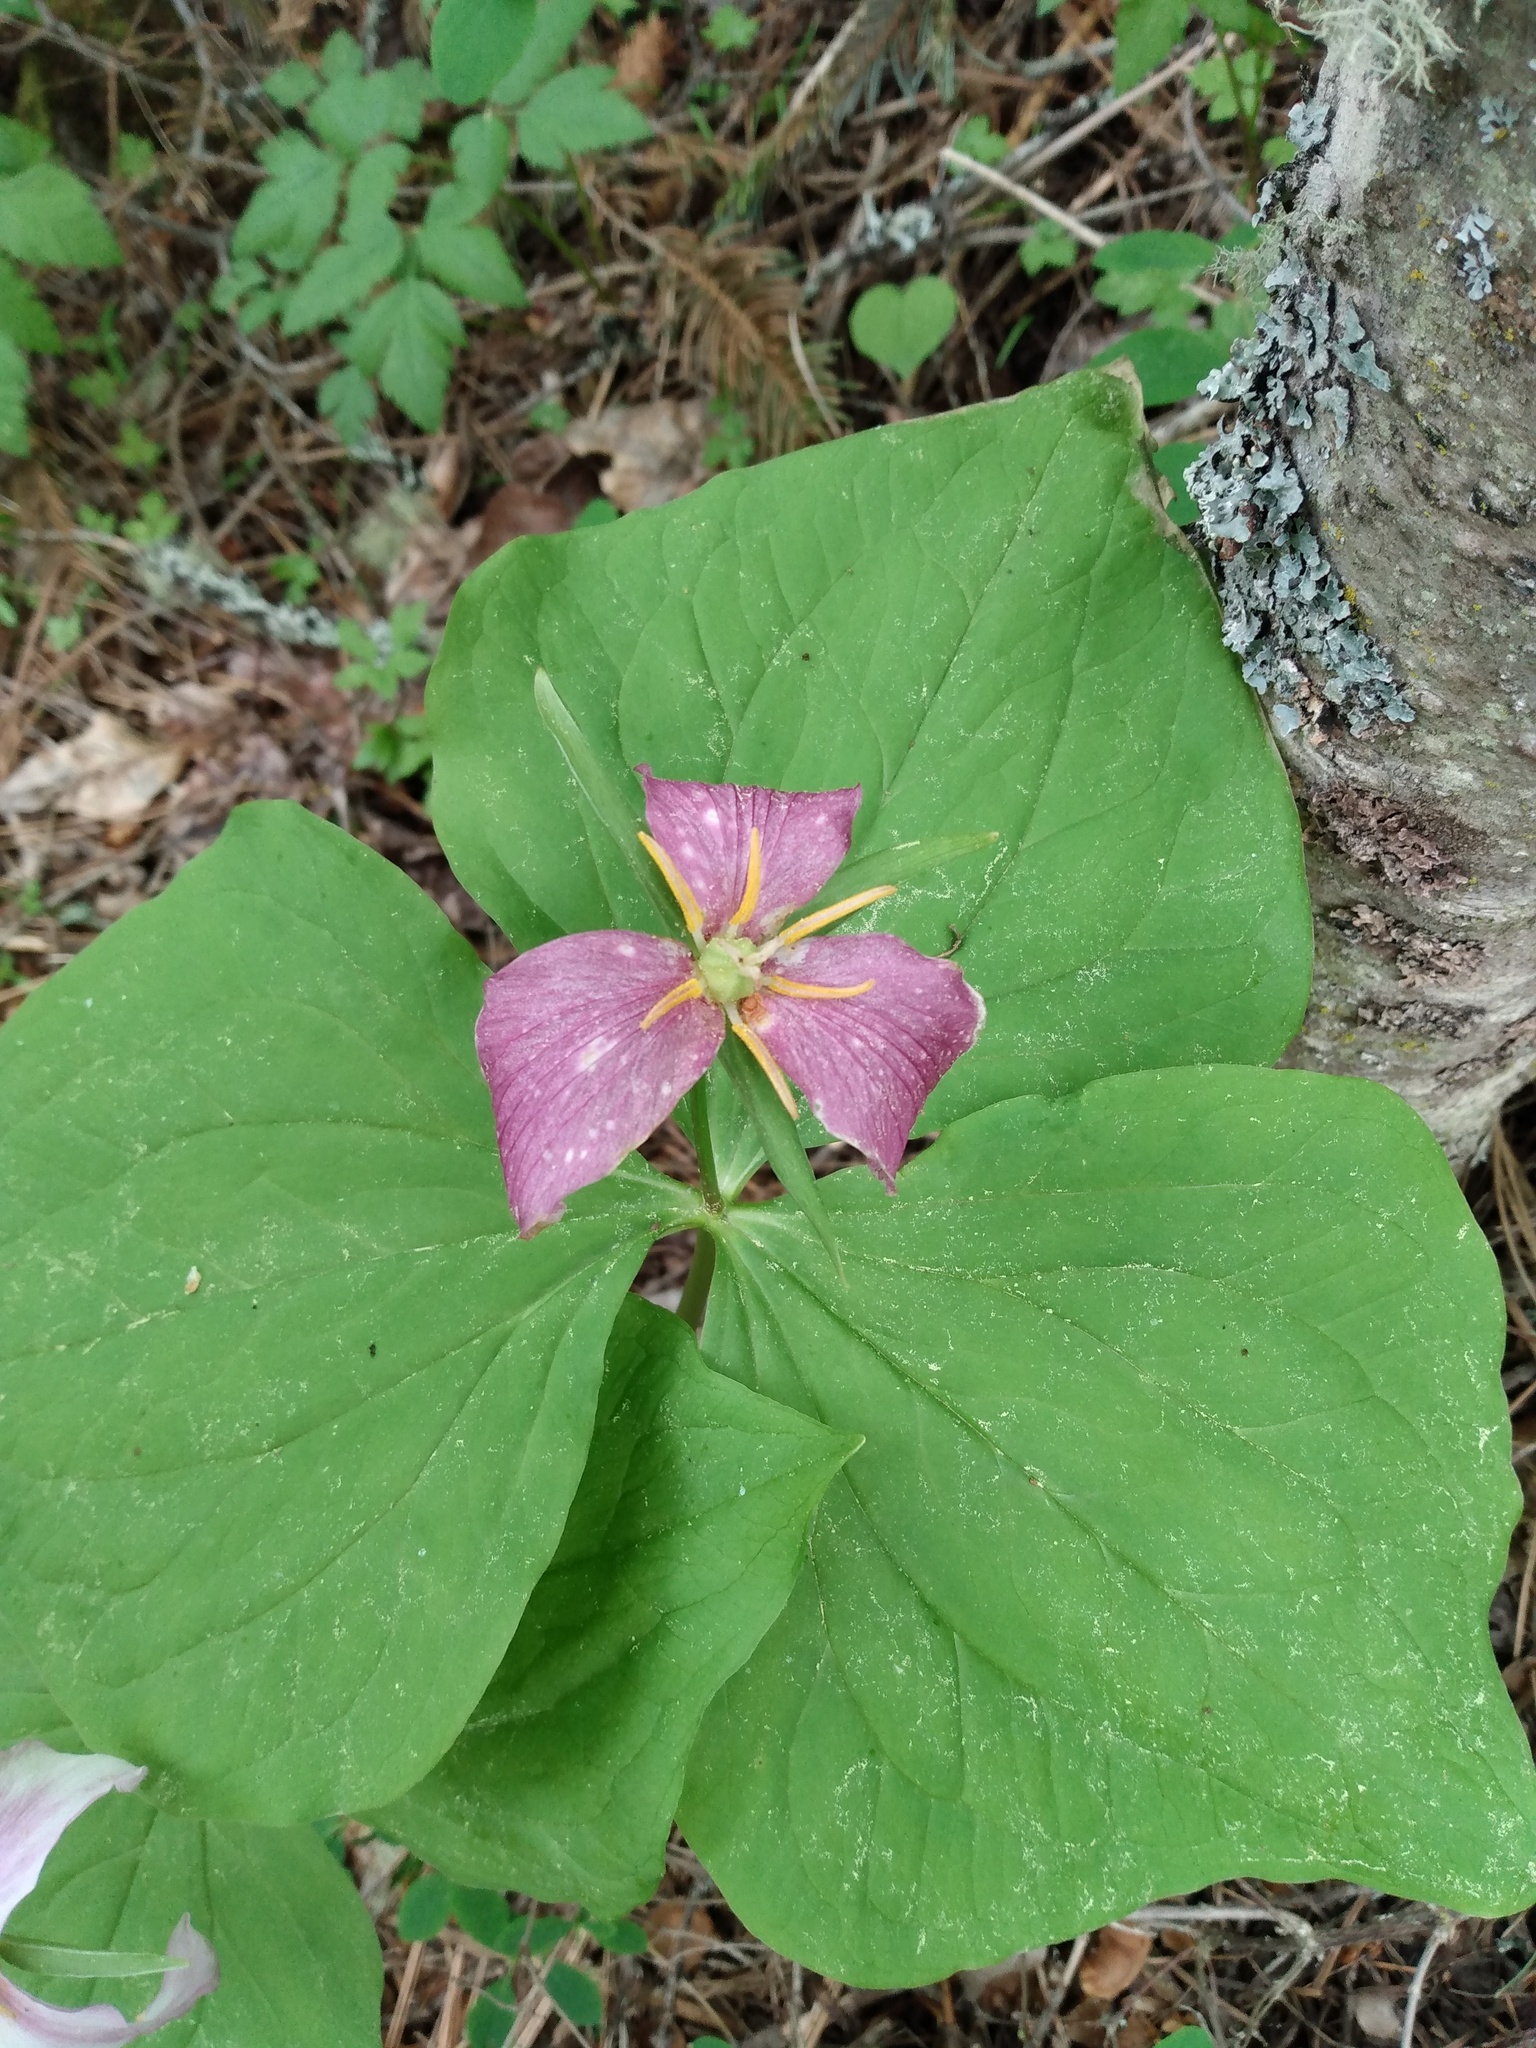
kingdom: Plantae
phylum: Tracheophyta
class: Liliopsida
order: Liliales
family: Melanthiaceae
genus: Trillium
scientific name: Trillium ovatum
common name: Pacific trillium
